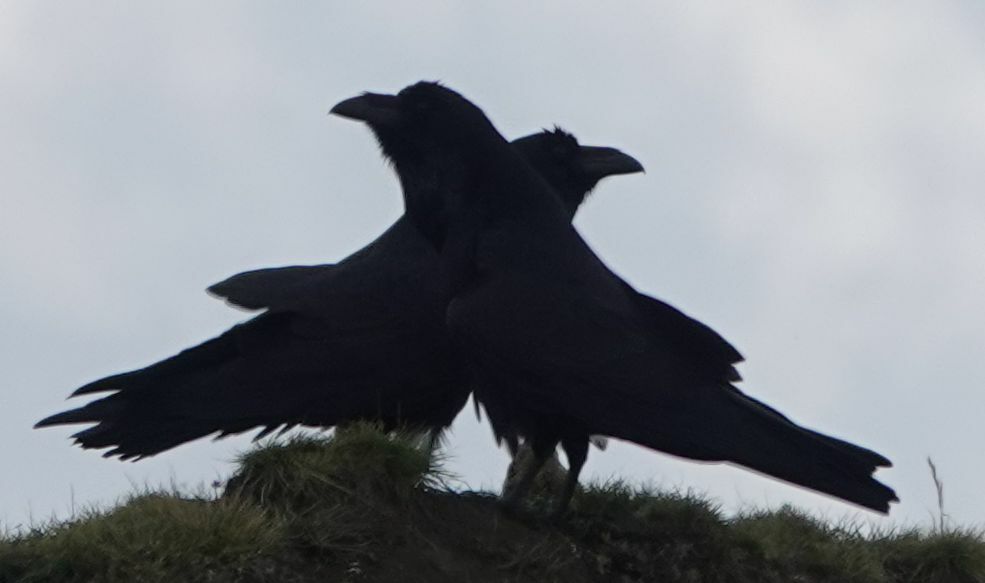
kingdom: Animalia
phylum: Chordata
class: Aves
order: Passeriformes
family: Corvidae
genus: Corvus
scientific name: Corvus corax
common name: Common raven
